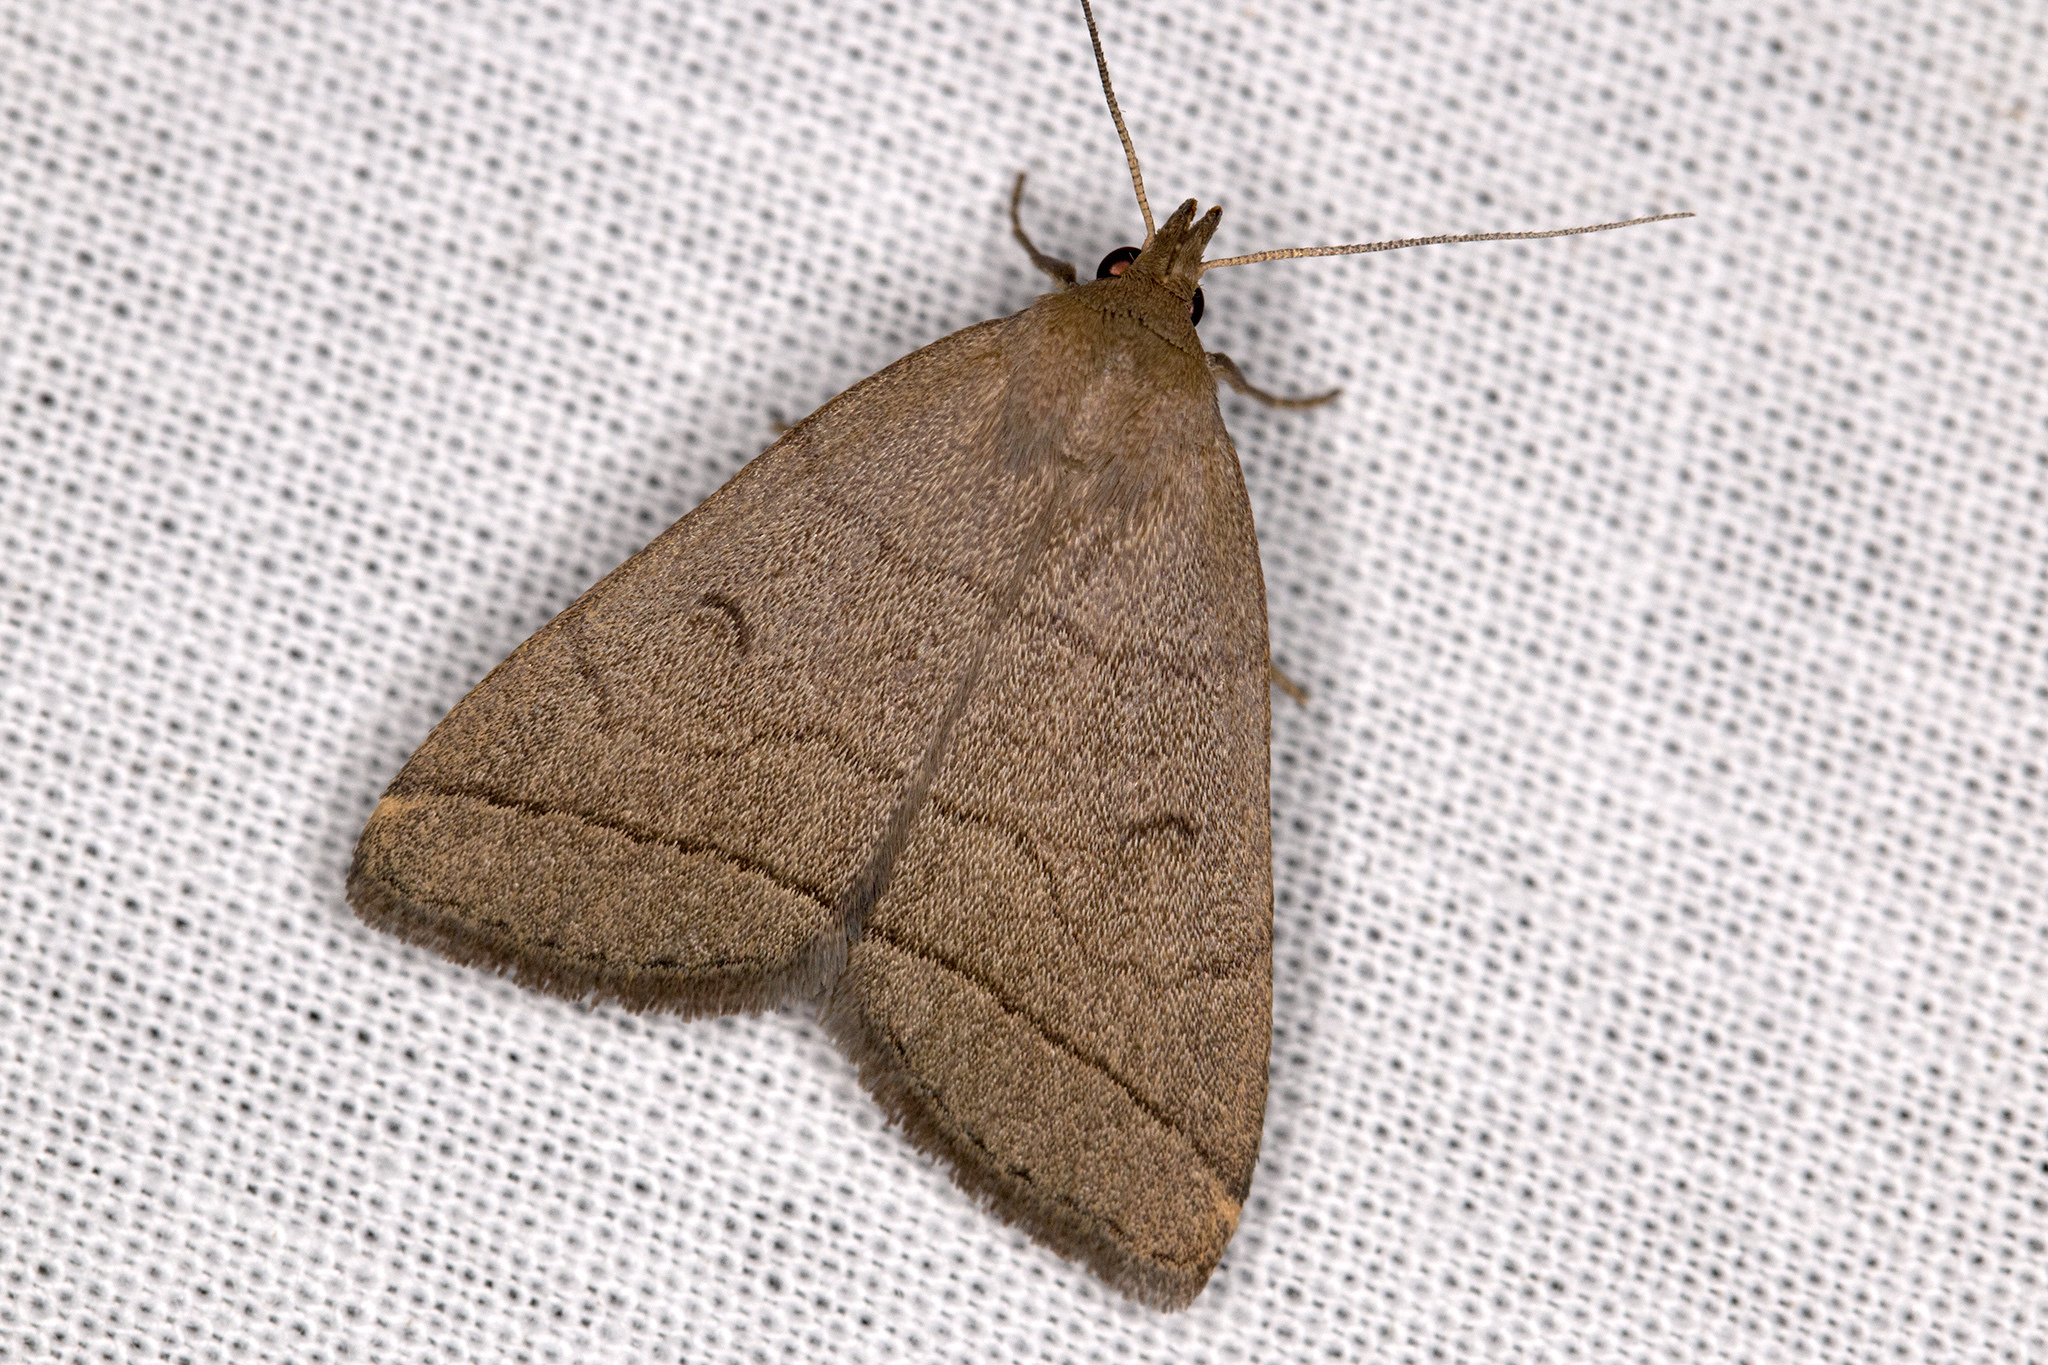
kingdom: Animalia
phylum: Arthropoda
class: Insecta
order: Lepidoptera
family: Erebidae
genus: Herminia
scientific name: Herminia tarsipennalis
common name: Fan-foot
